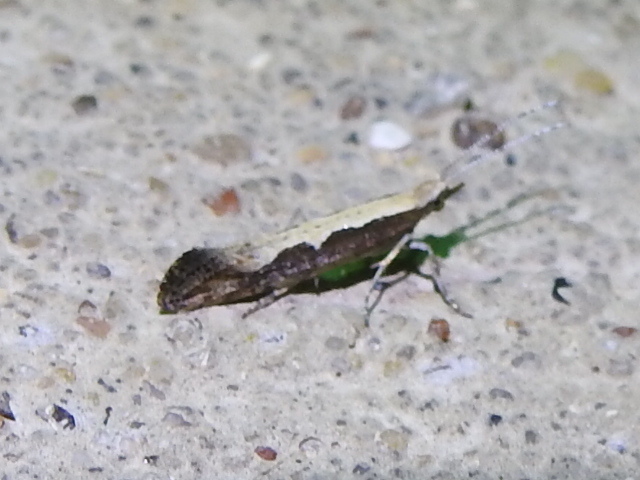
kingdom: Animalia
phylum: Arthropoda
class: Insecta
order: Lepidoptera
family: Plutellidae
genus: Plutella
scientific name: Plutella xylostella
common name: Diamond-back moth
